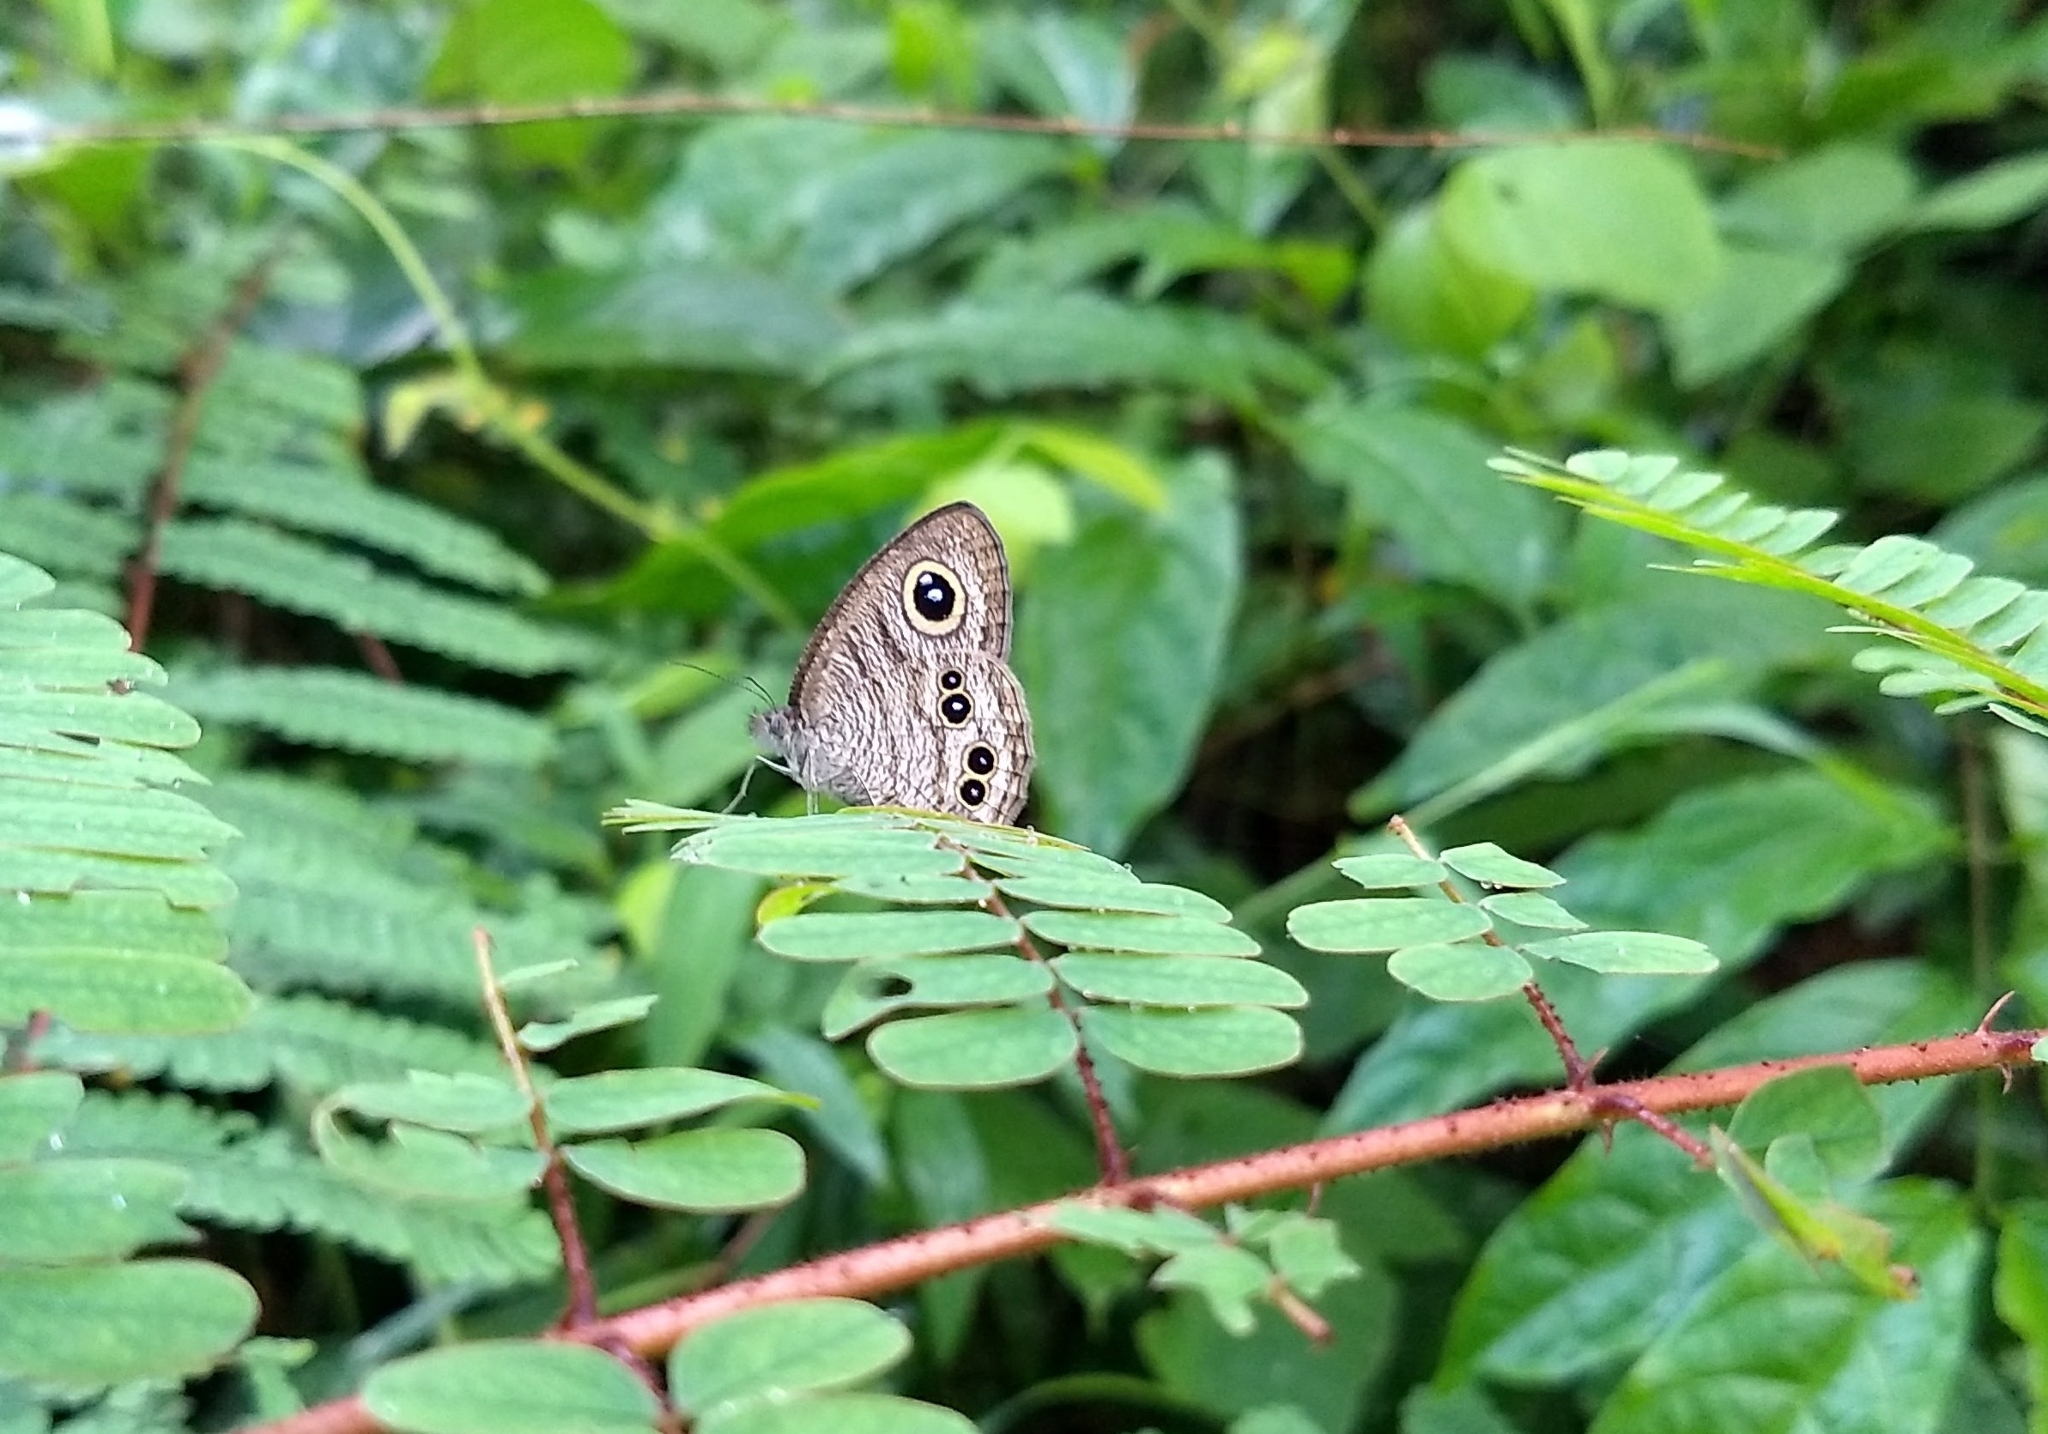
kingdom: Animalia
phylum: Arthropoda
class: Insecta
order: Lepidoptera
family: Nymphalidae
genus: Ypthima
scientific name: Ypthima baldus
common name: Common five-ring
